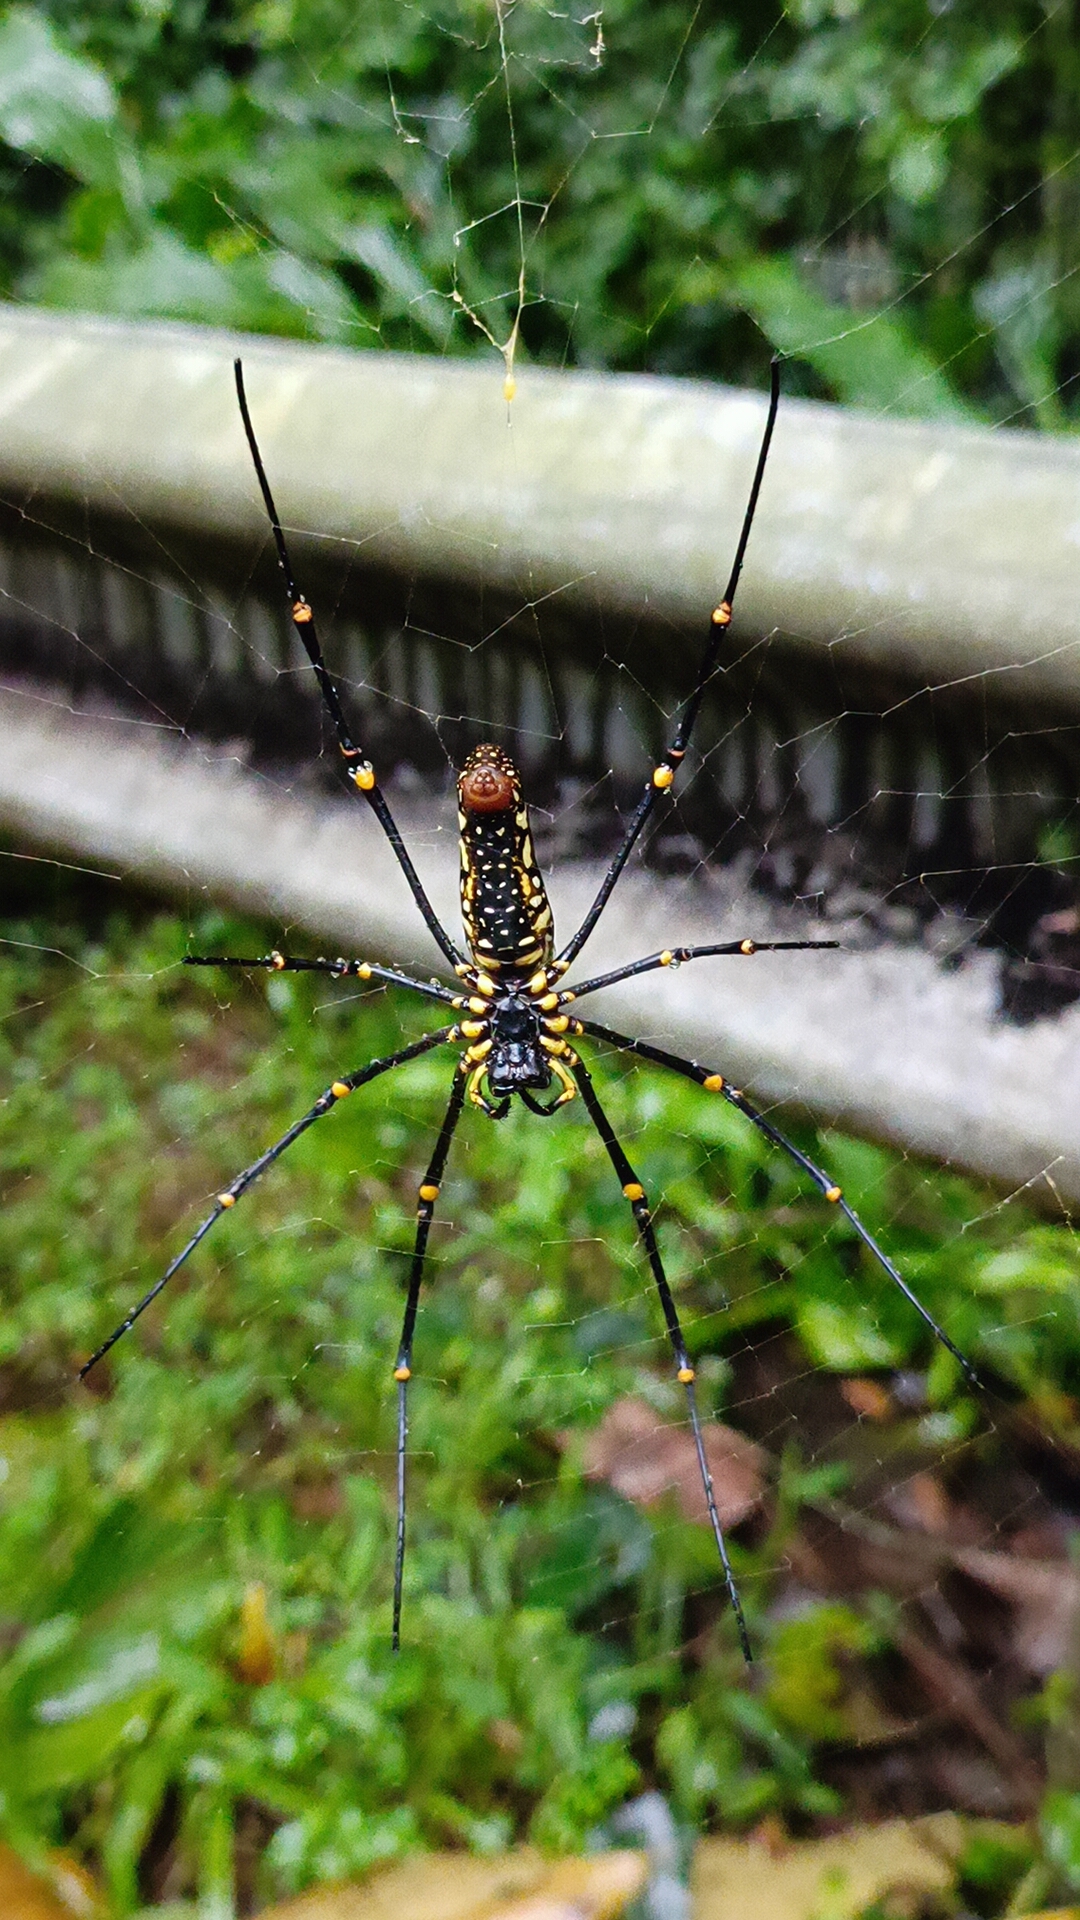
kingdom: Animalia
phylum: Arthropoda
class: Arachnida
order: Araneae
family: Araneidae
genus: Nephila
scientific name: Nephila pilipes
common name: Giant golden orb weaver
